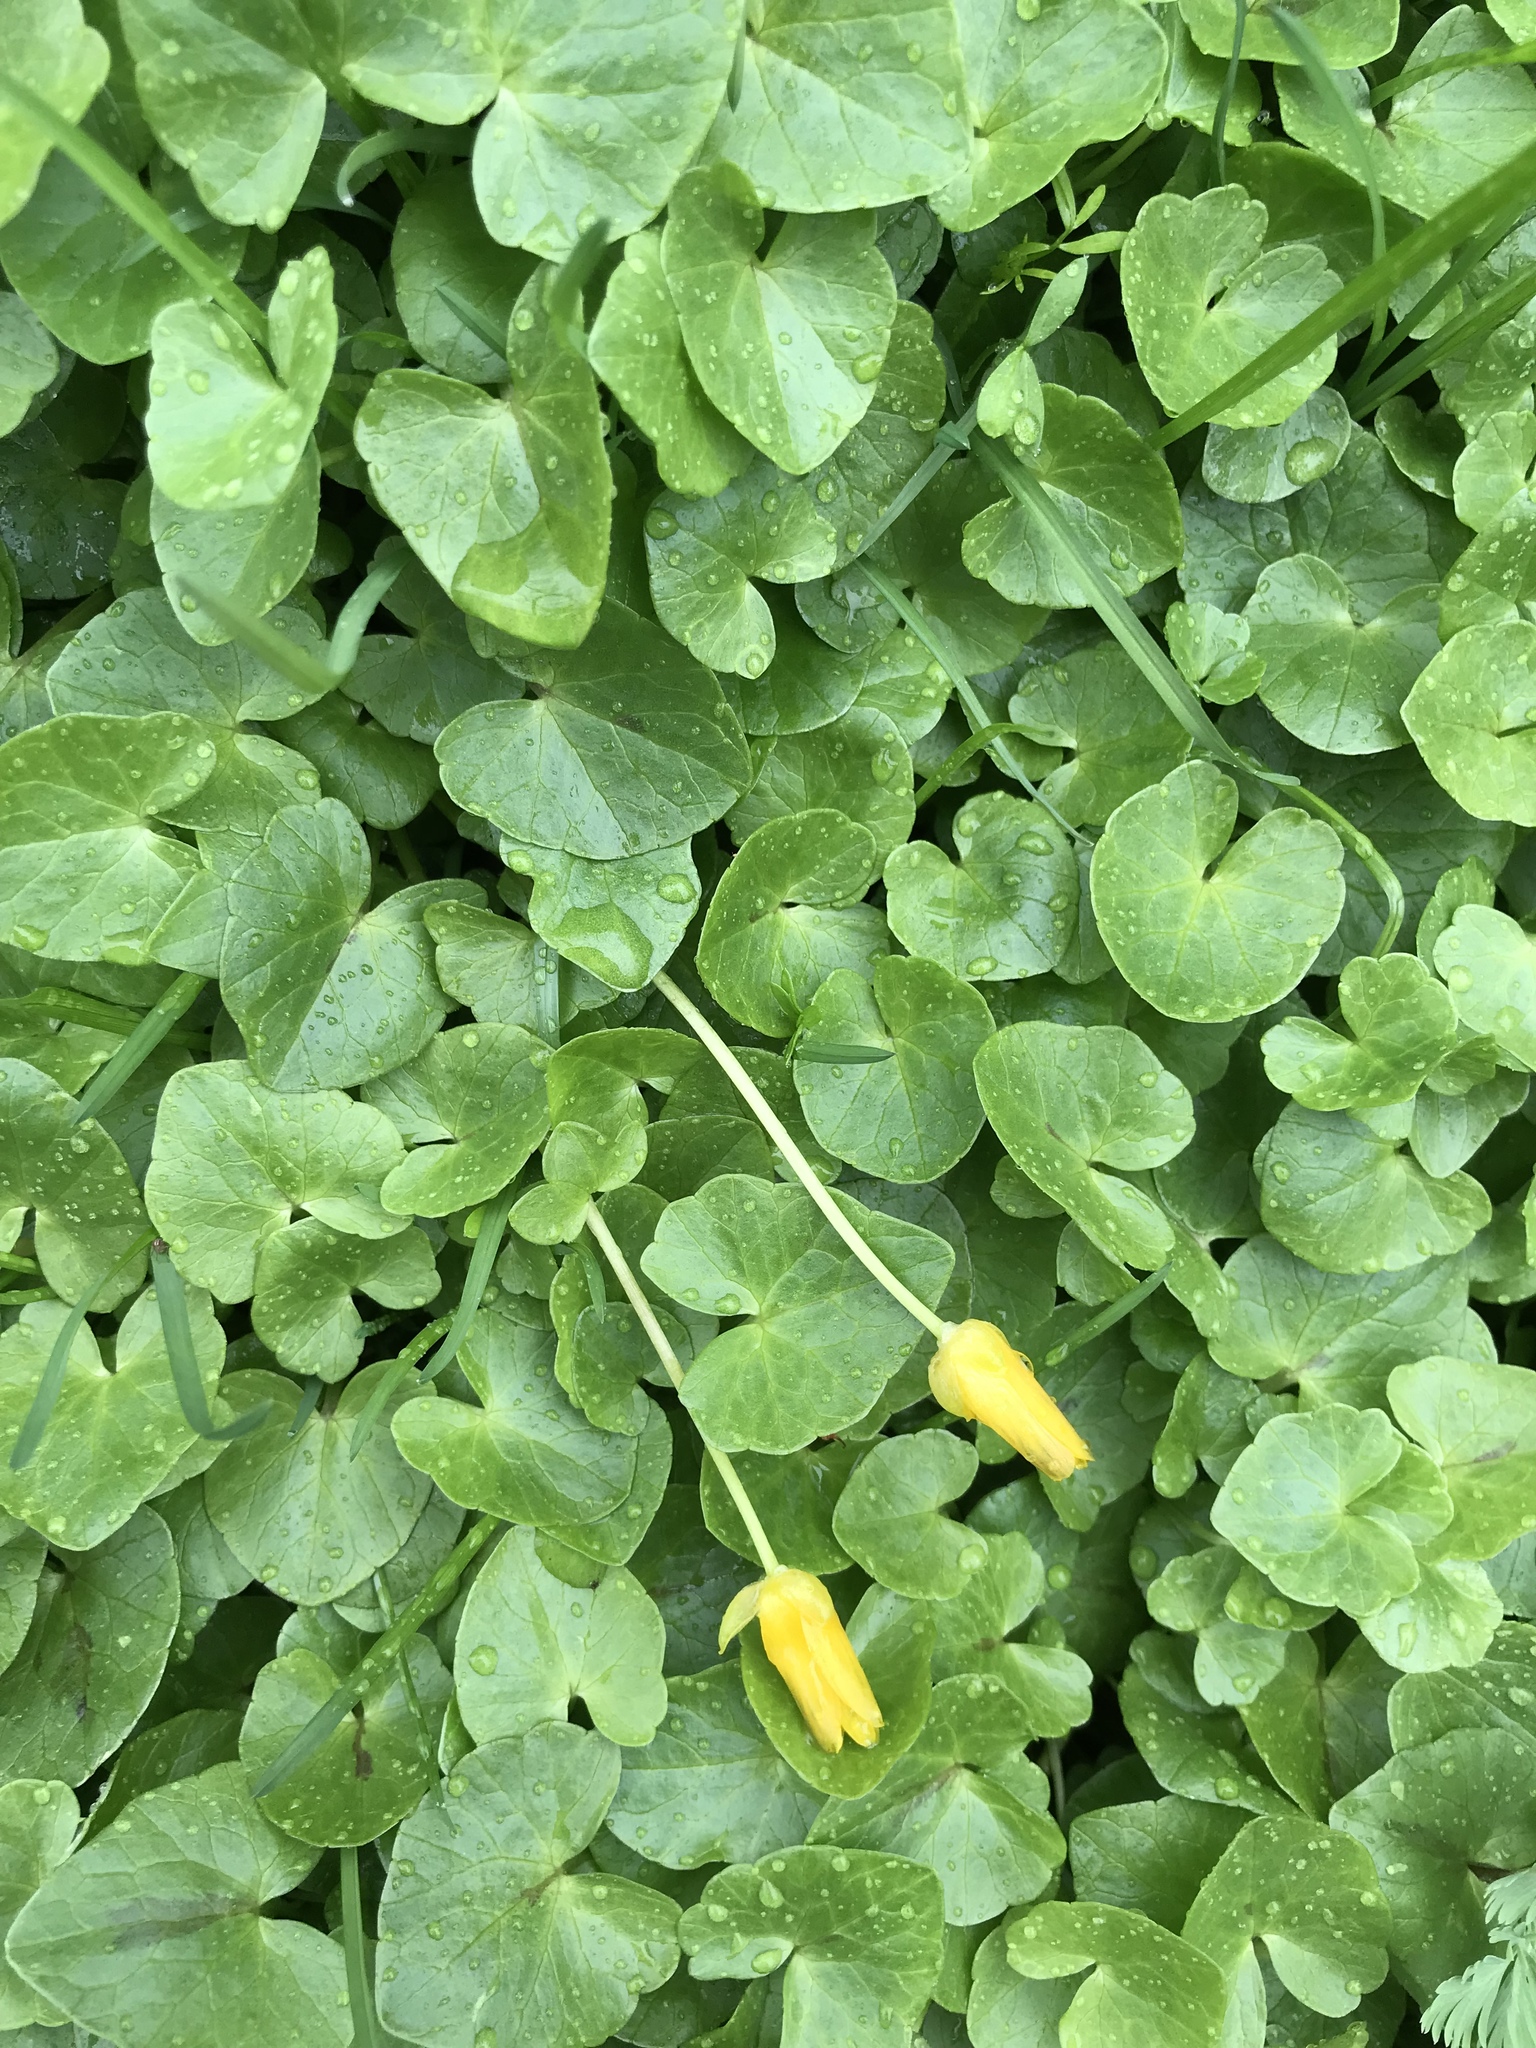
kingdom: Plantae
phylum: Tracheophyta
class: Magnoliopsida
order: Ranunculales
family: Ranunculaceae
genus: Ficaria
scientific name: Ficaria verna
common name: Lesser celandine
